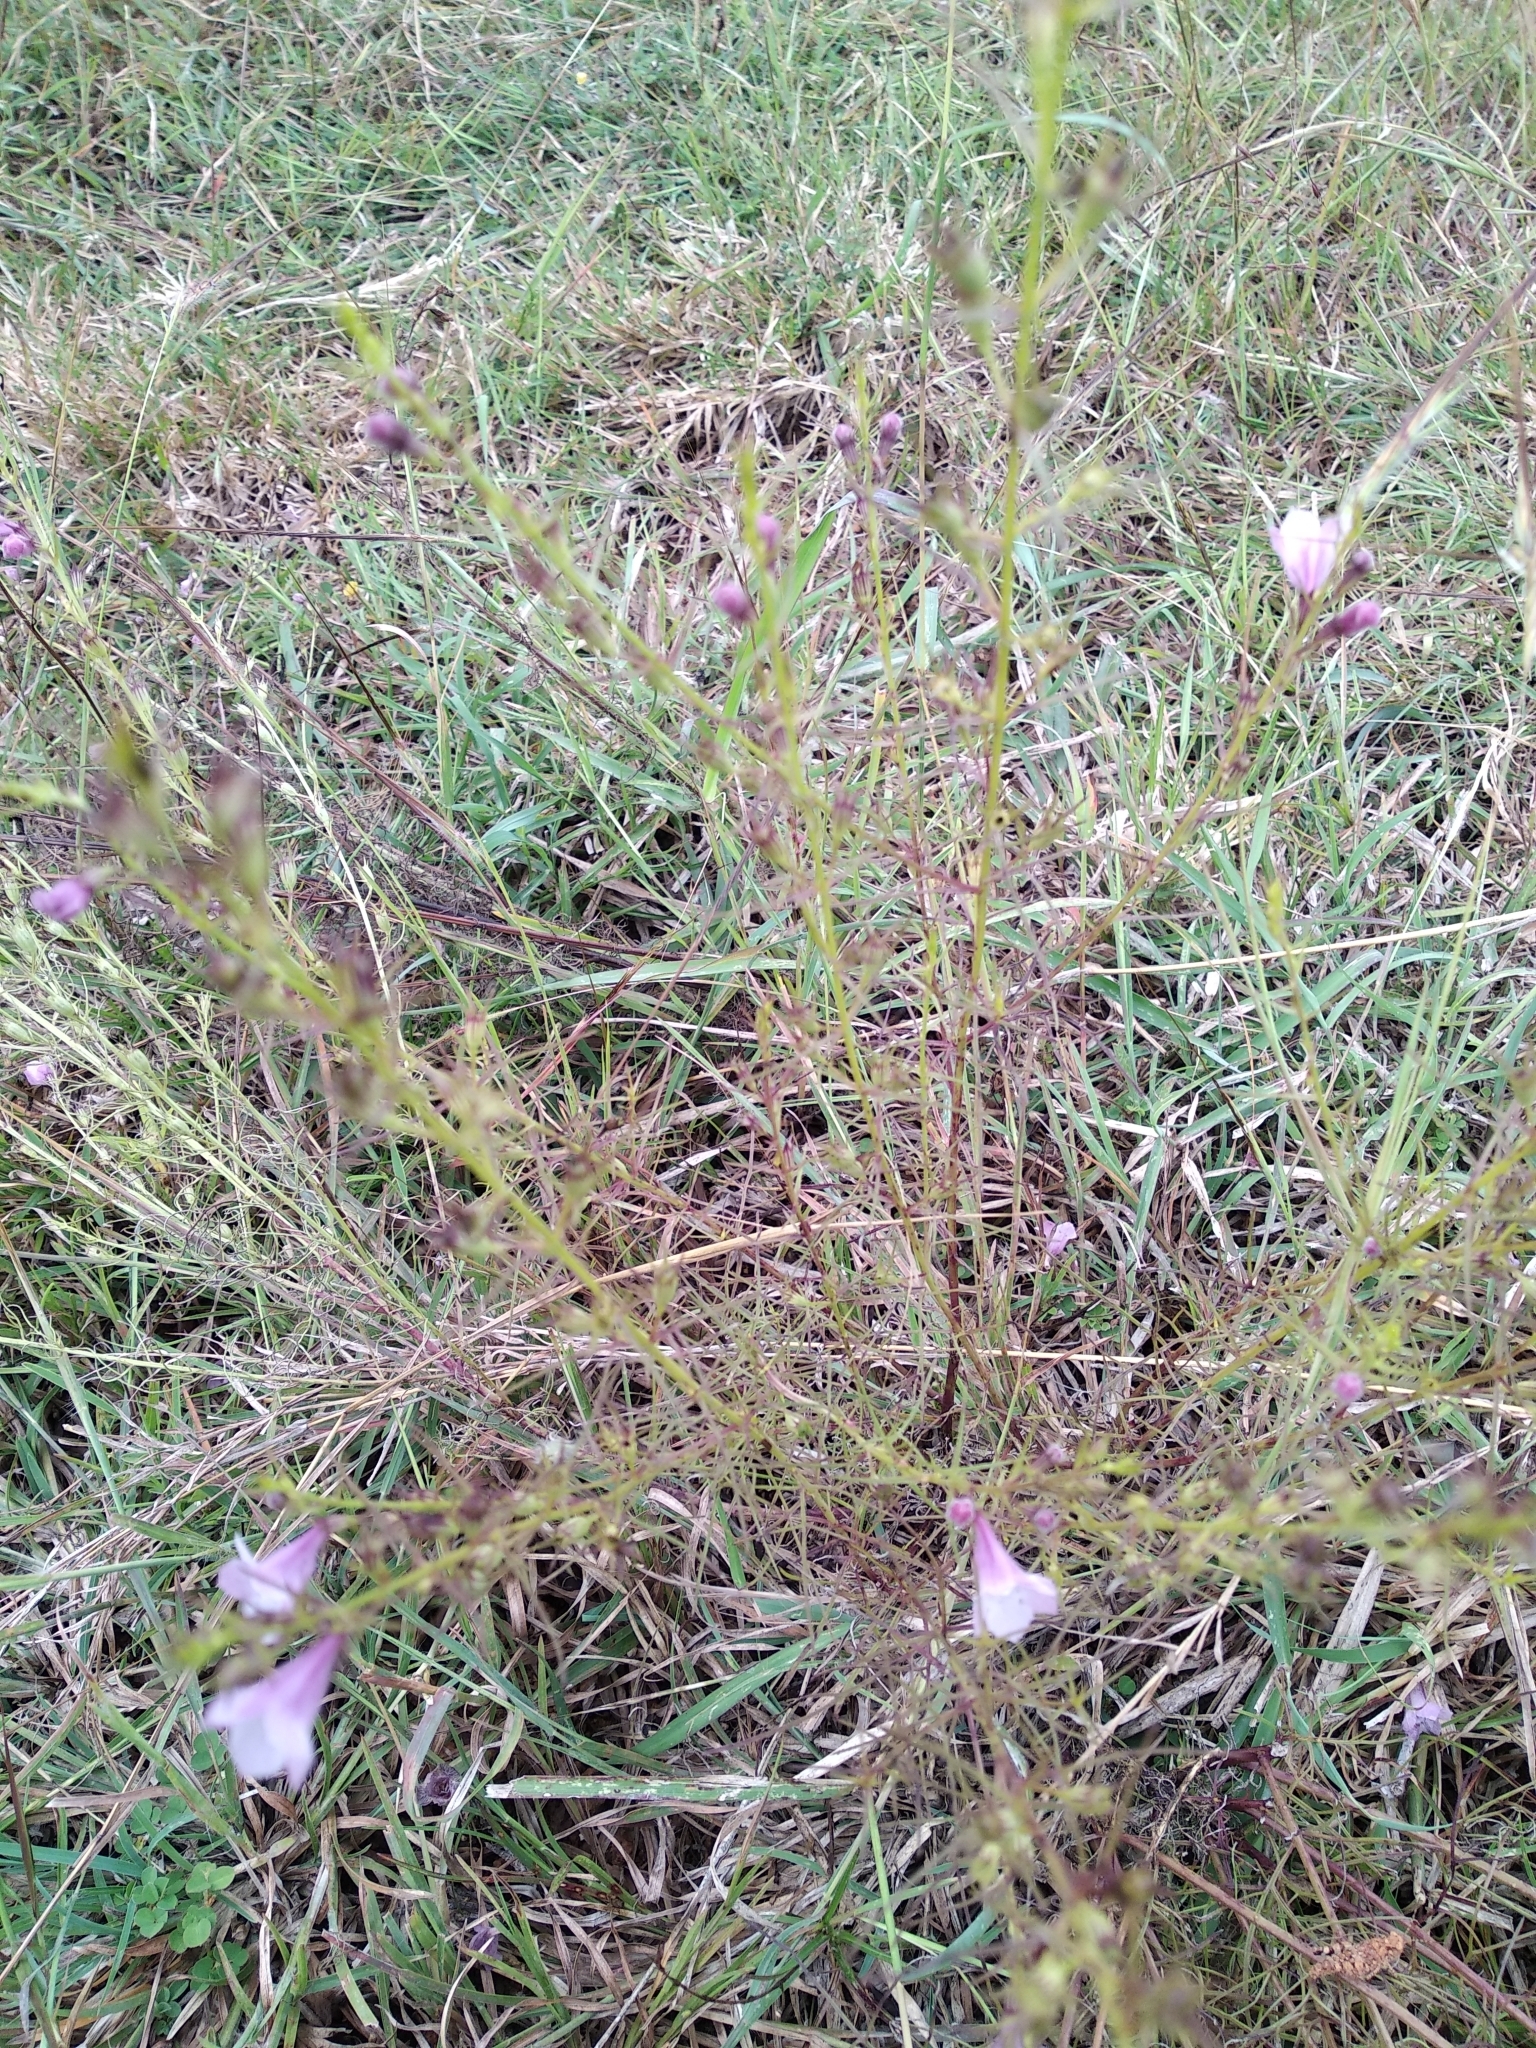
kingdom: Plantae
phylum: Tracheophyta
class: Magnoliopsida
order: Lamiales
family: Orobanchaceae
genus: Parasopubia
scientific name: Parasopubia delphiniifolia
